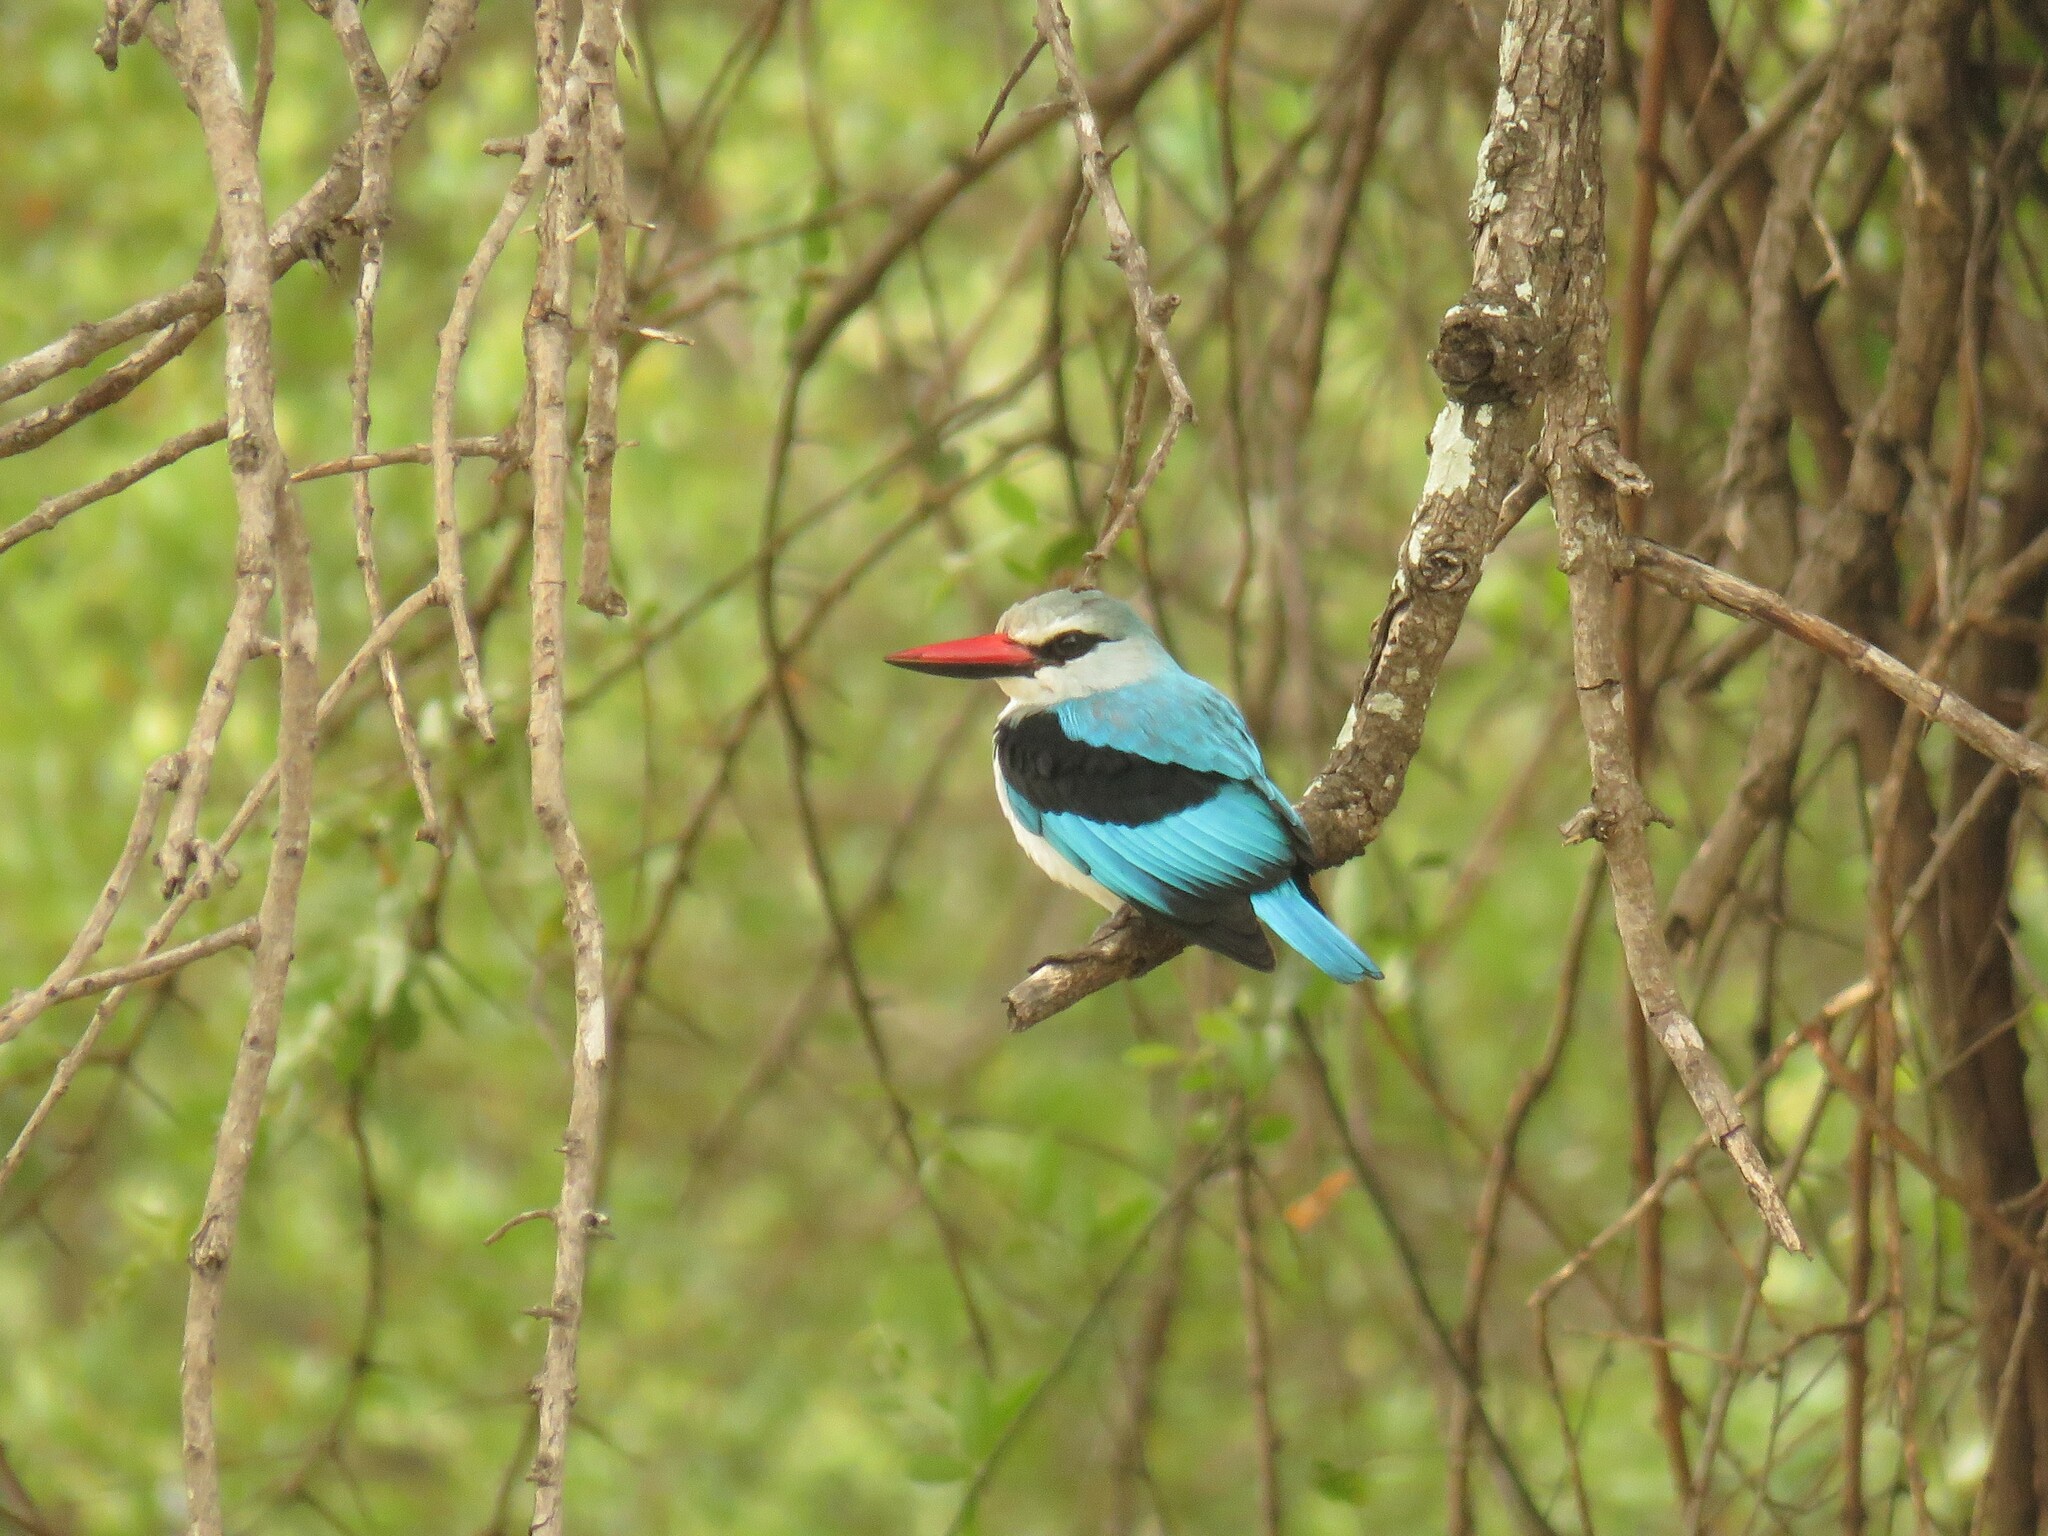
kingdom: Animalia
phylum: Chordata
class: Aves
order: Coraciiformes
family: Alcedinidae
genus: Halcyon
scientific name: Halcyon senegalensis
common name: Woodland kingfisher
